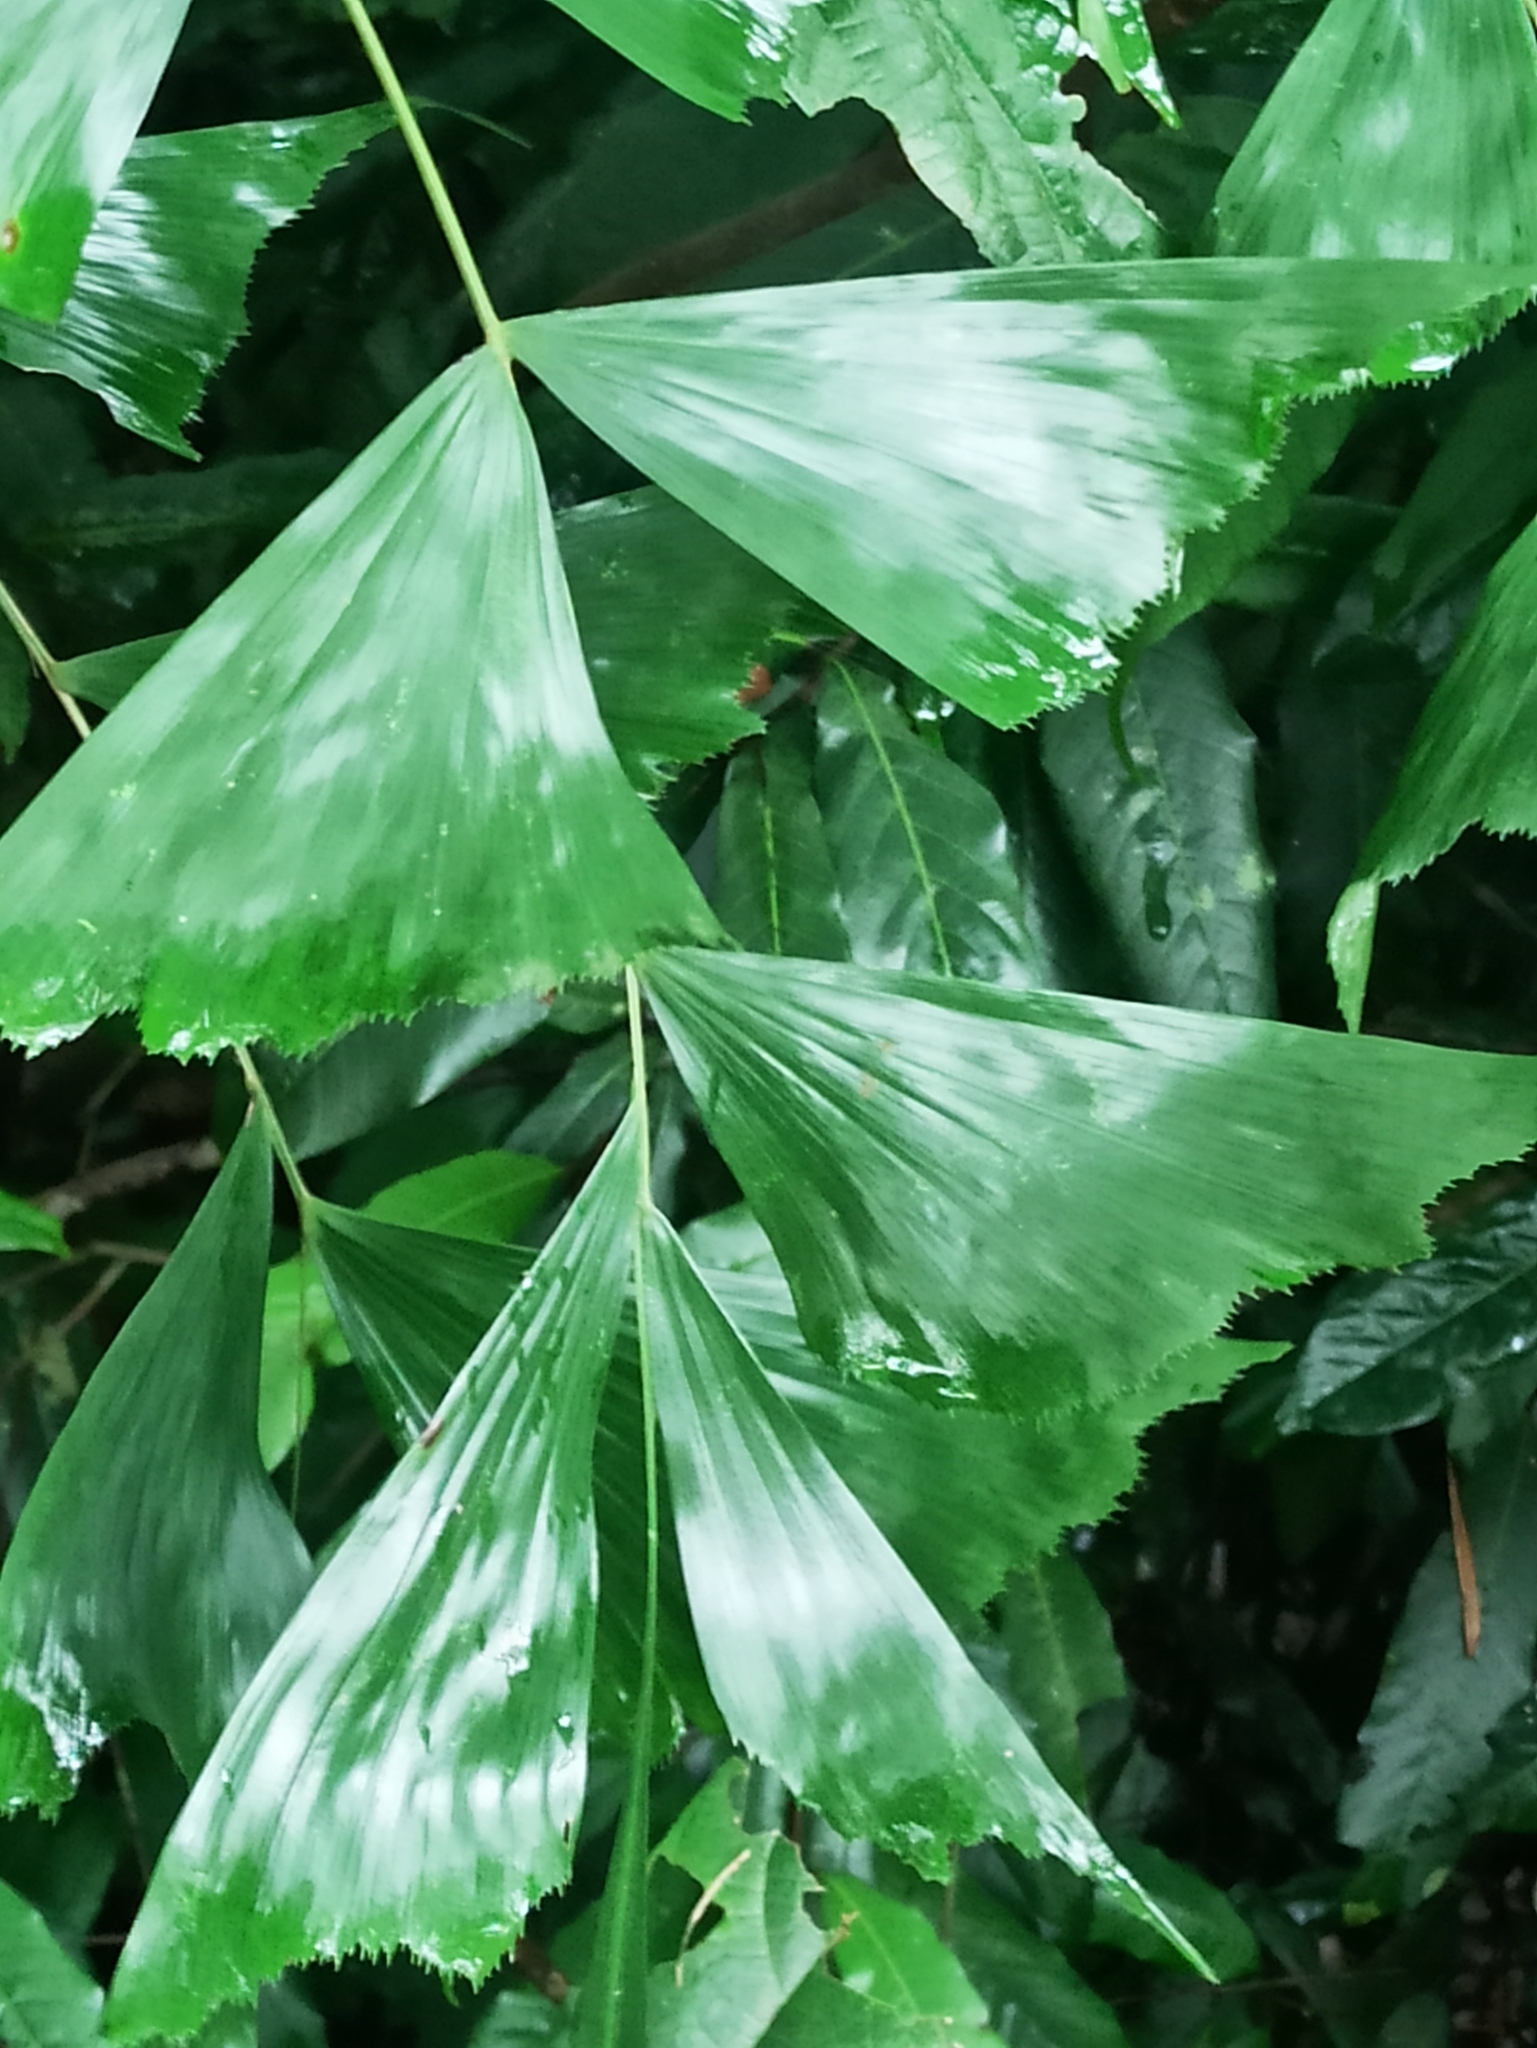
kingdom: Plantae
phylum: Tracheophyta
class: Liliopsida
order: Arecales
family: Arecaceae
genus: Caryota
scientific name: Caryota urens
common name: Jaggery palm
